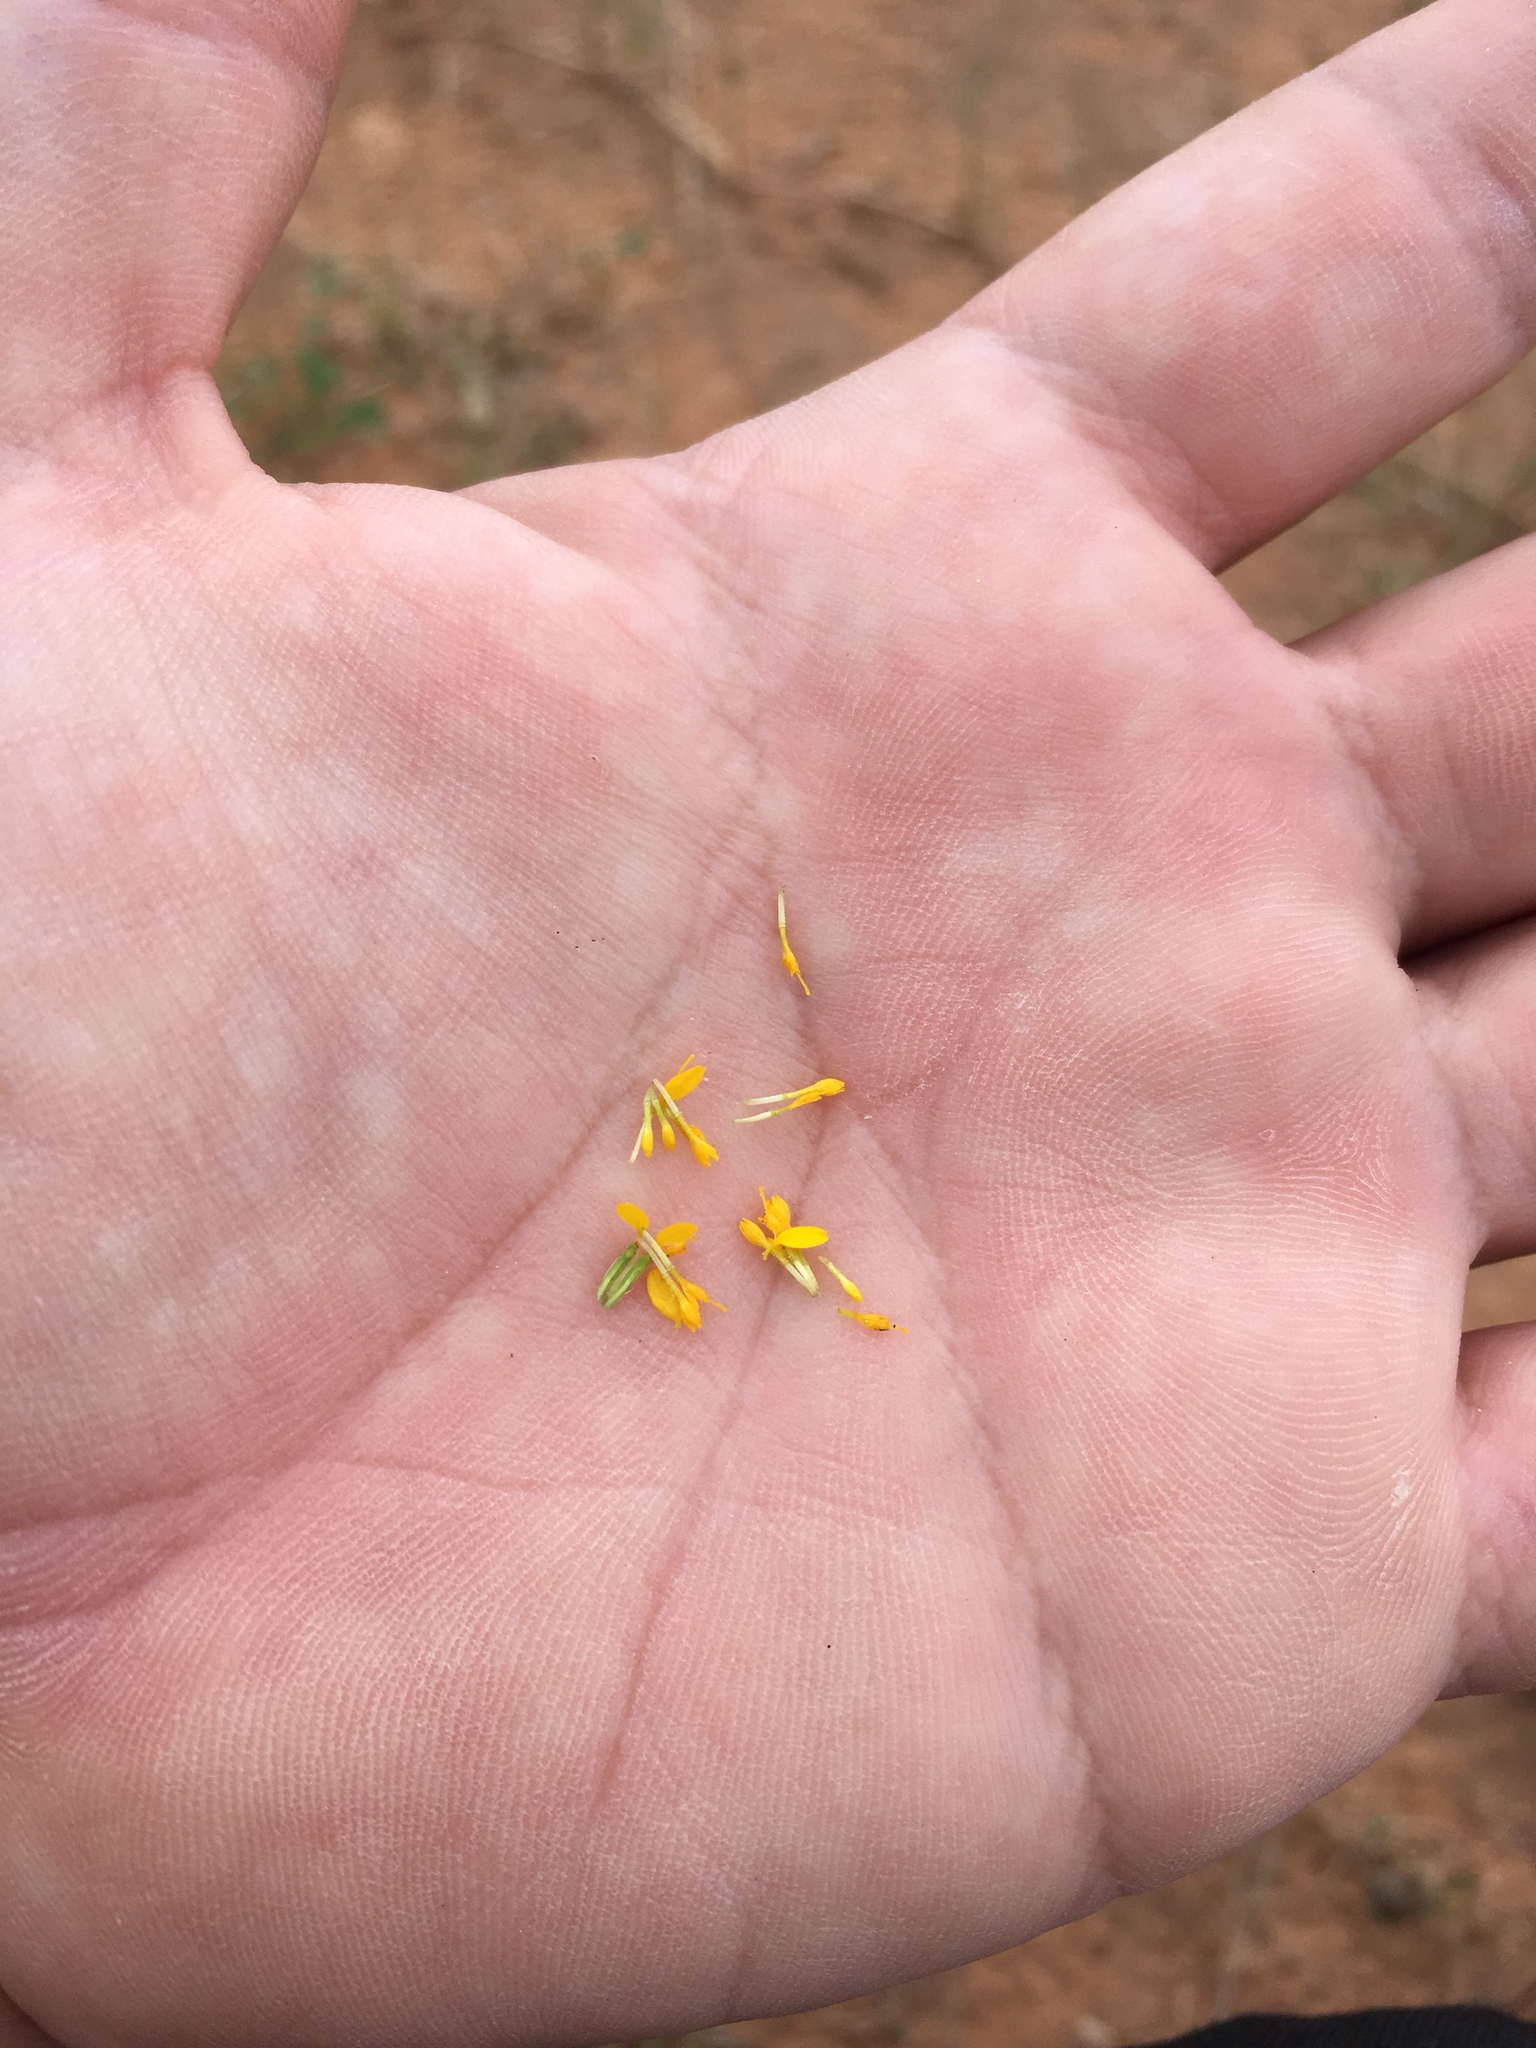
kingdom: Plantae
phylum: Tracheophyta
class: Magnoliopsida
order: Asterales
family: Asteraceae
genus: Pectis
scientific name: Pectis angustifolia
